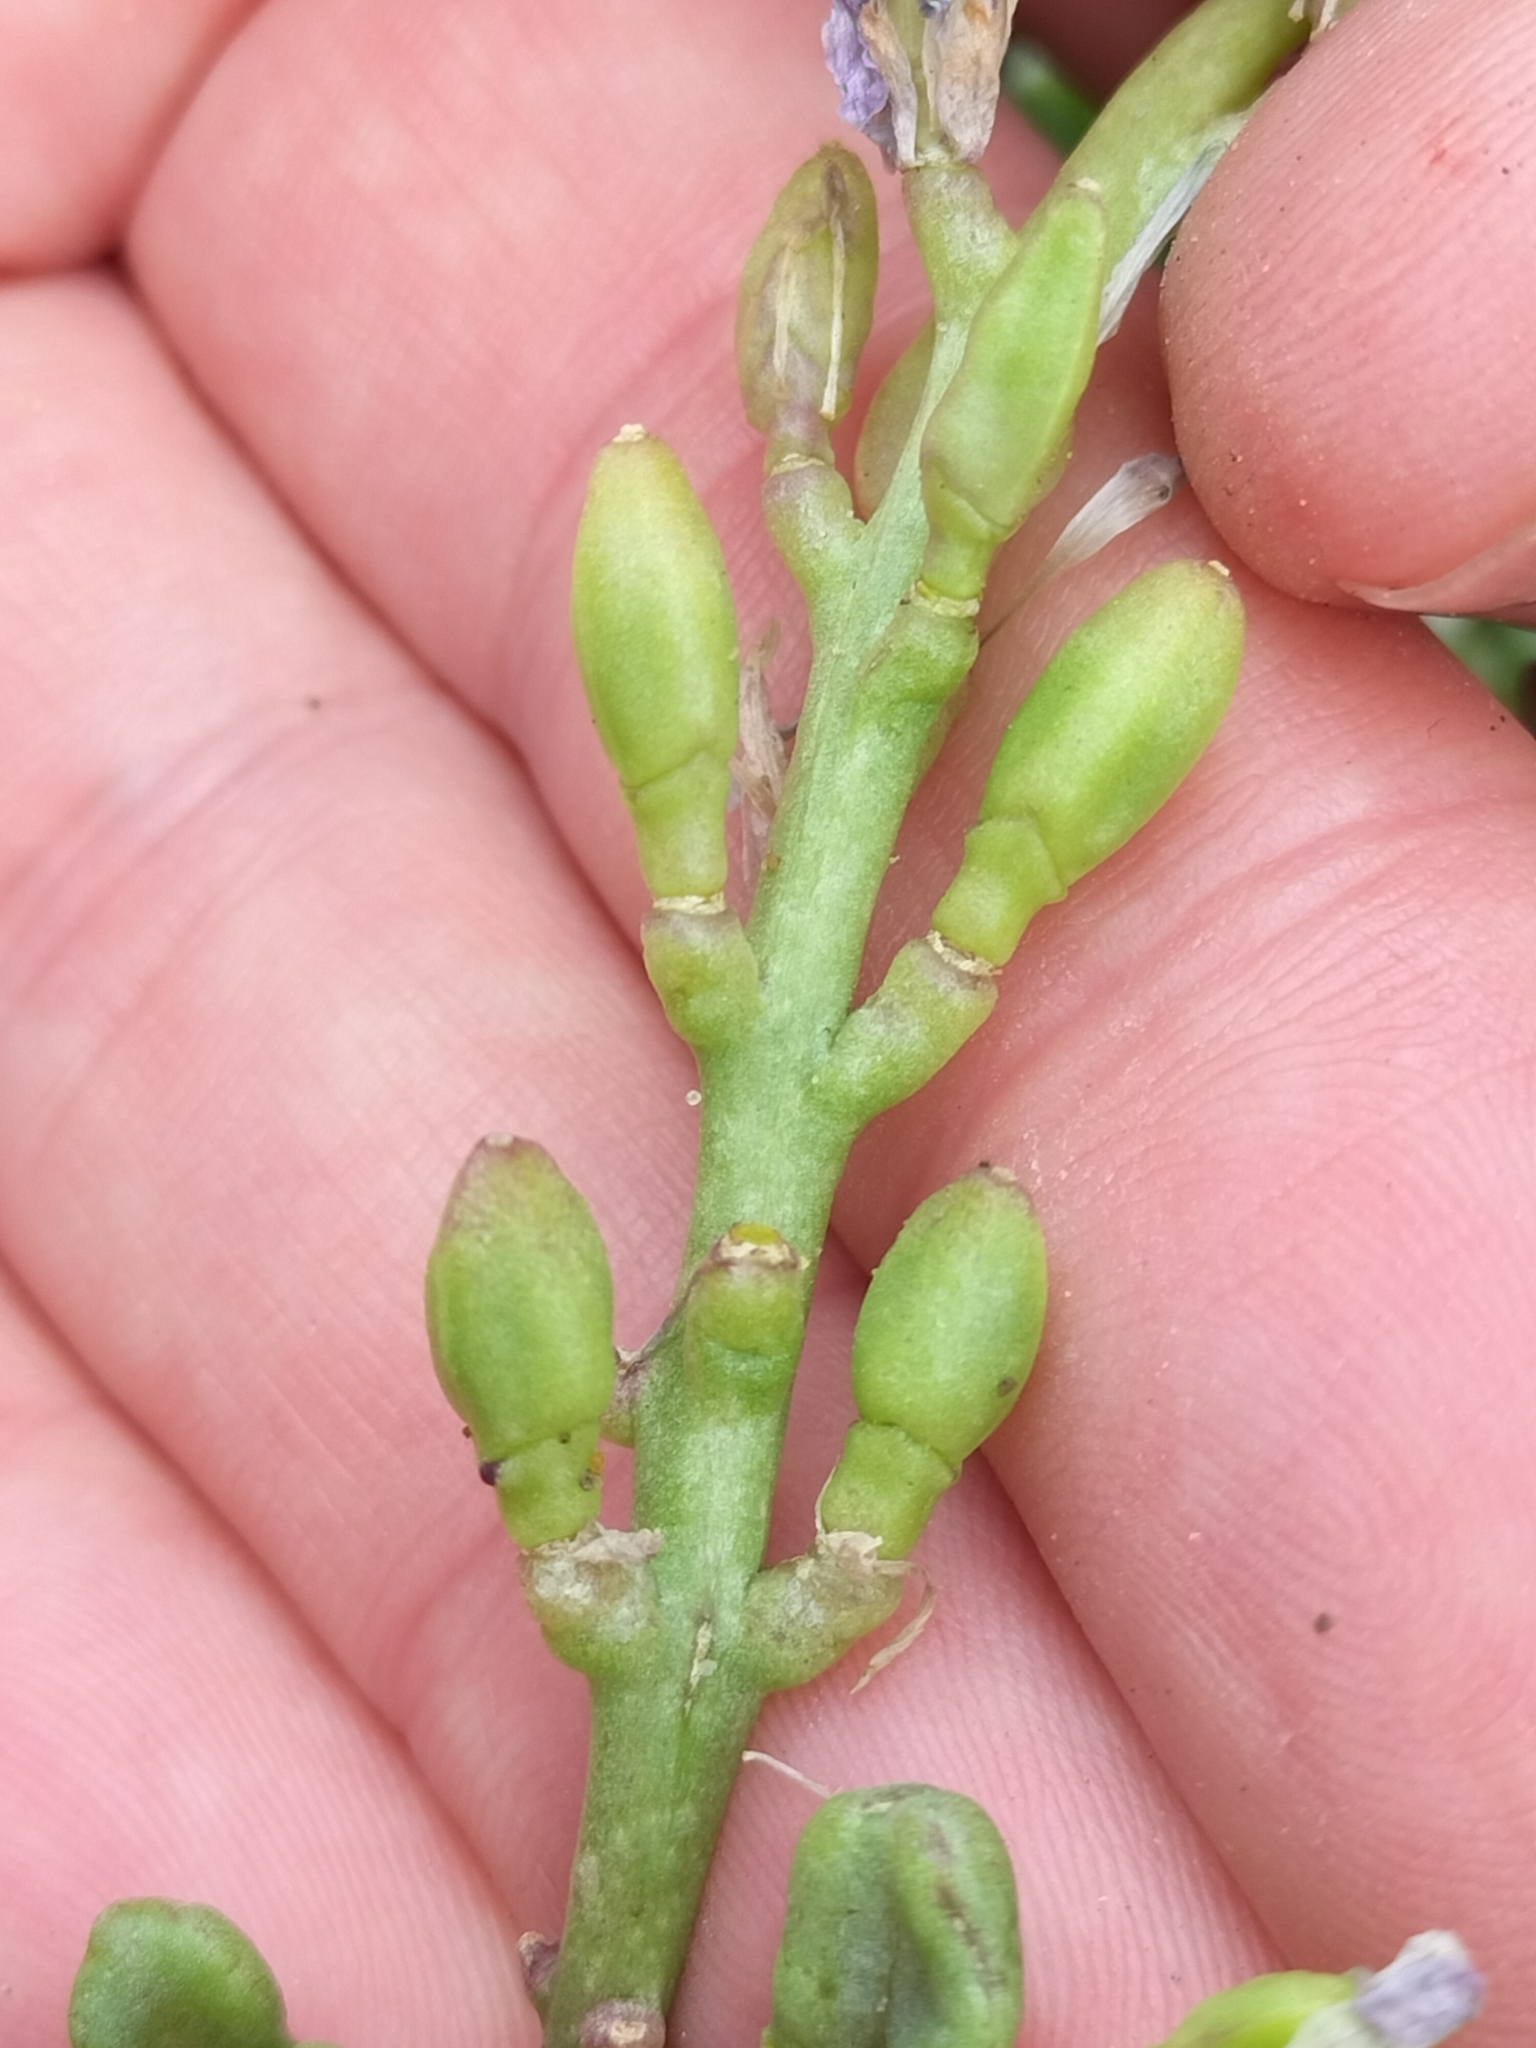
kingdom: Plantae
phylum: Tracheophyta
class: Magnoliopsida
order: Brassicales
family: Brassicaceae
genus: Cakile
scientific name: Cakile edentula
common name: American sea rocket
